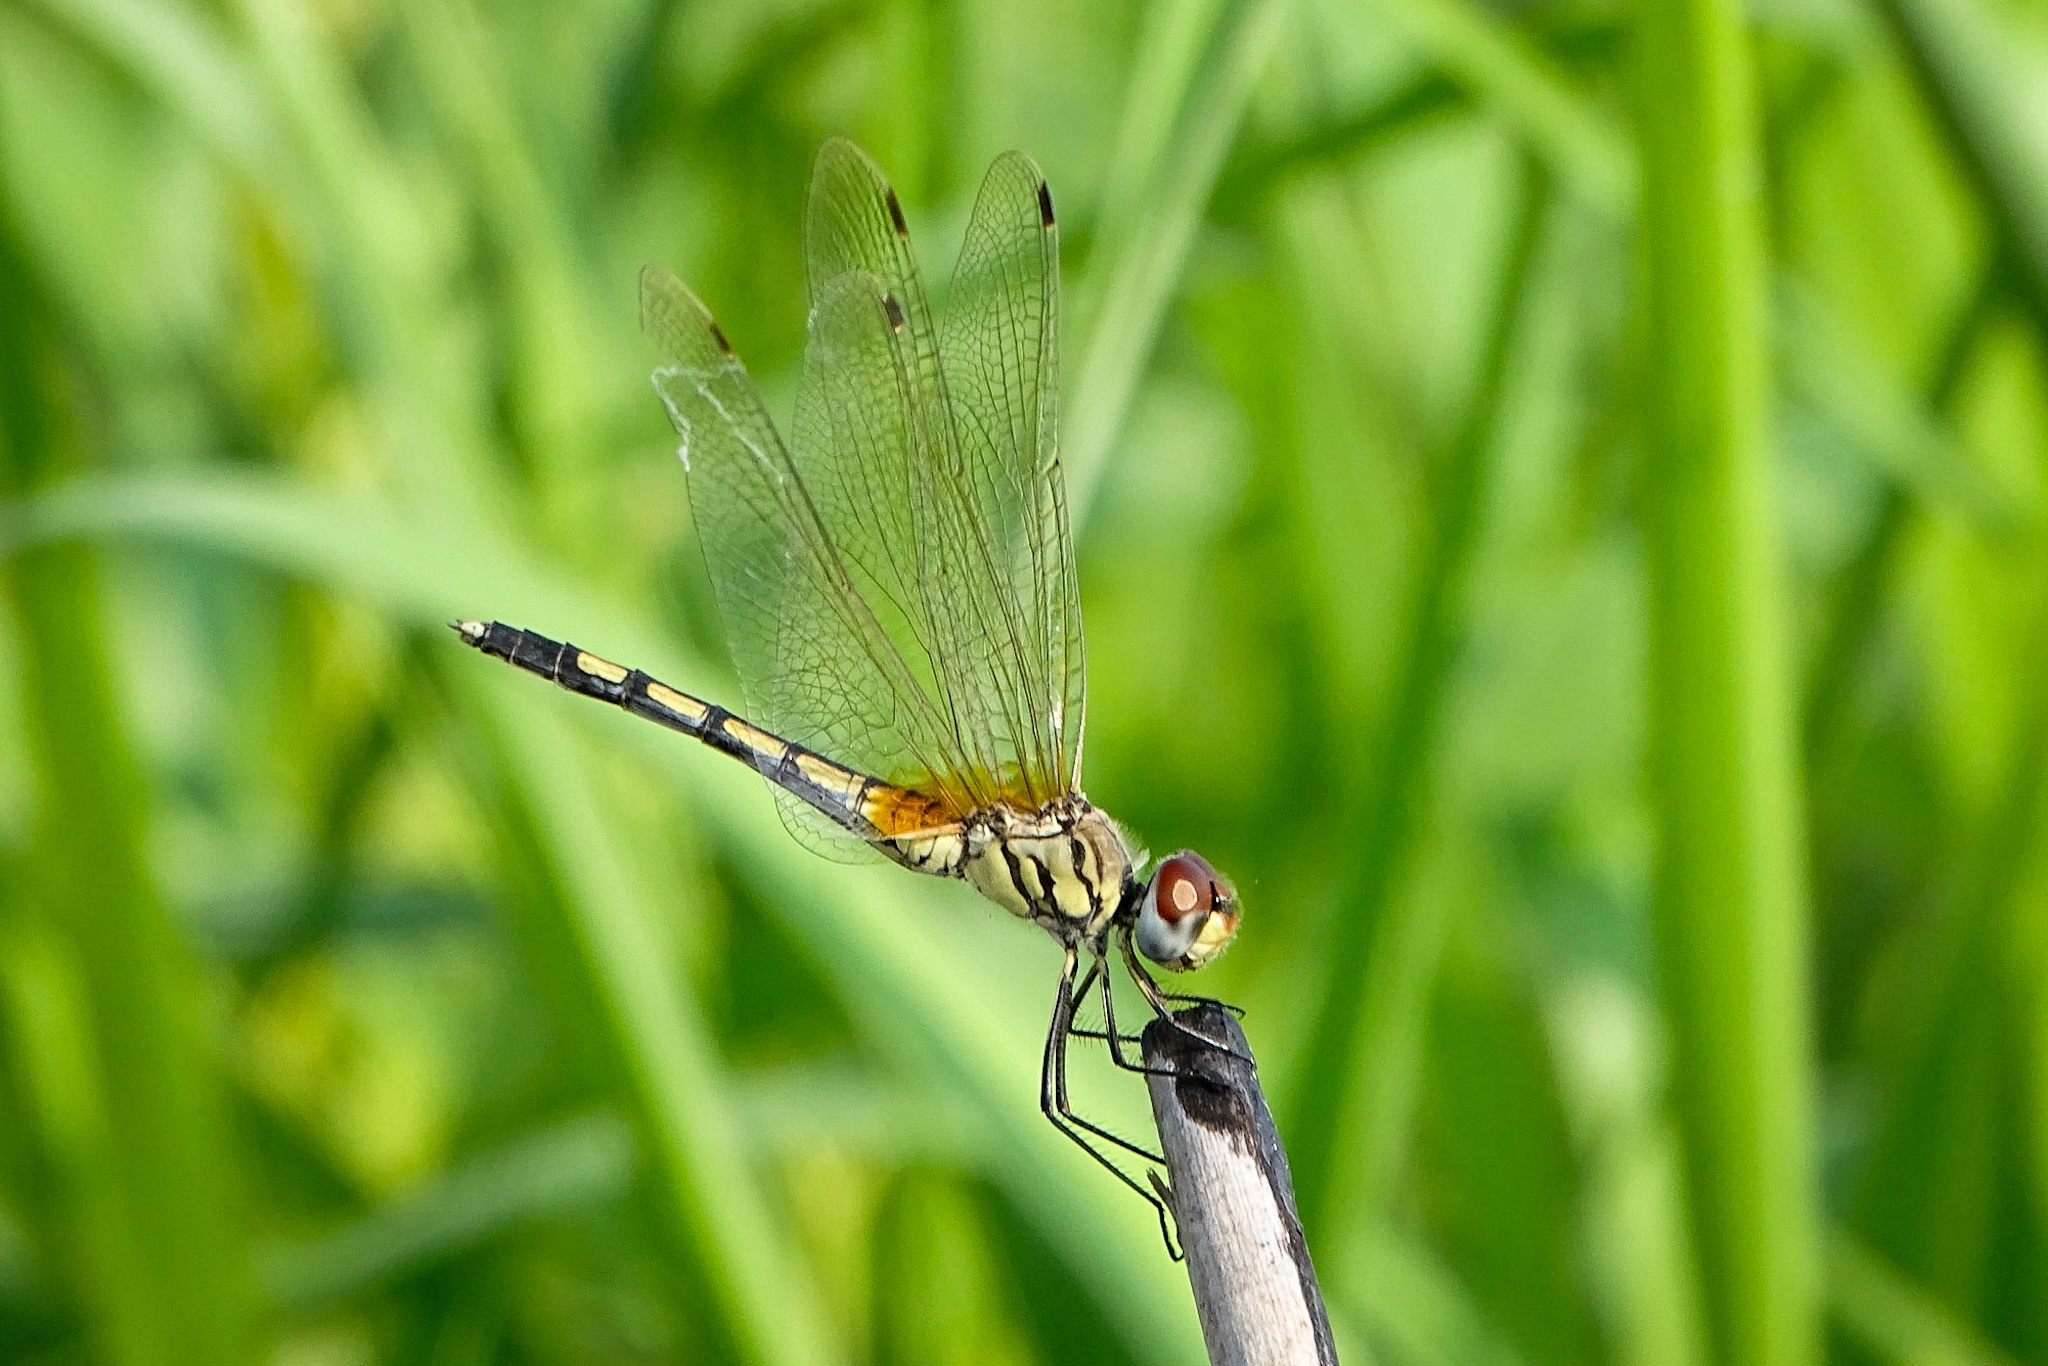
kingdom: Animalia
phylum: Arthropoda
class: Insecta
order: Odonata
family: Libellulidae
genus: Trithemis
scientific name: Trithemis pallidinervis
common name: Dancing dropwing
